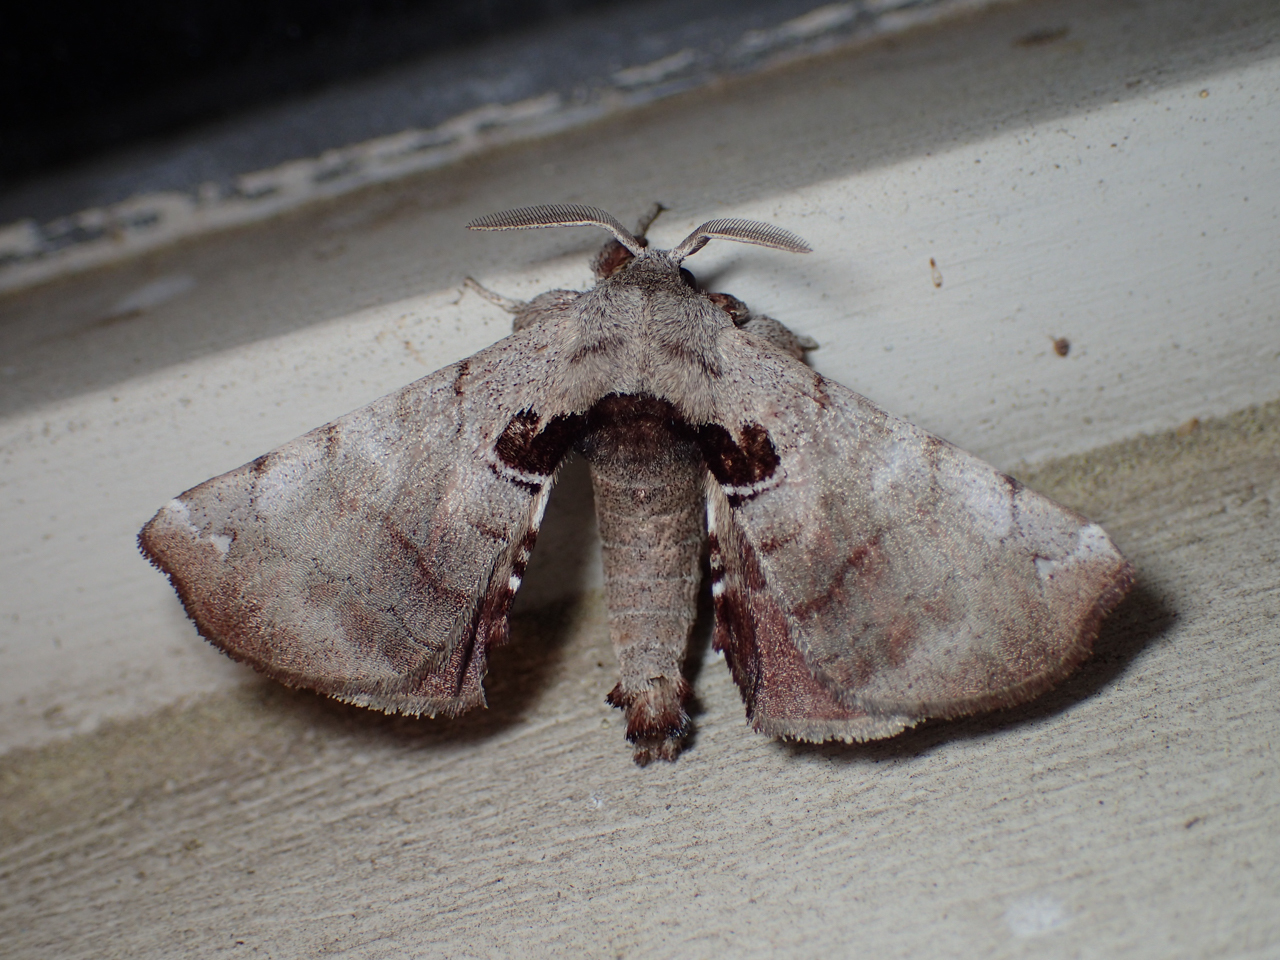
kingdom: Animalia
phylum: Arthropoda
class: Insecta
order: Lepidoptera
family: Apatelodidae
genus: Hygrochroa
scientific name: Hygrochroa Apatelodes torrefacta
